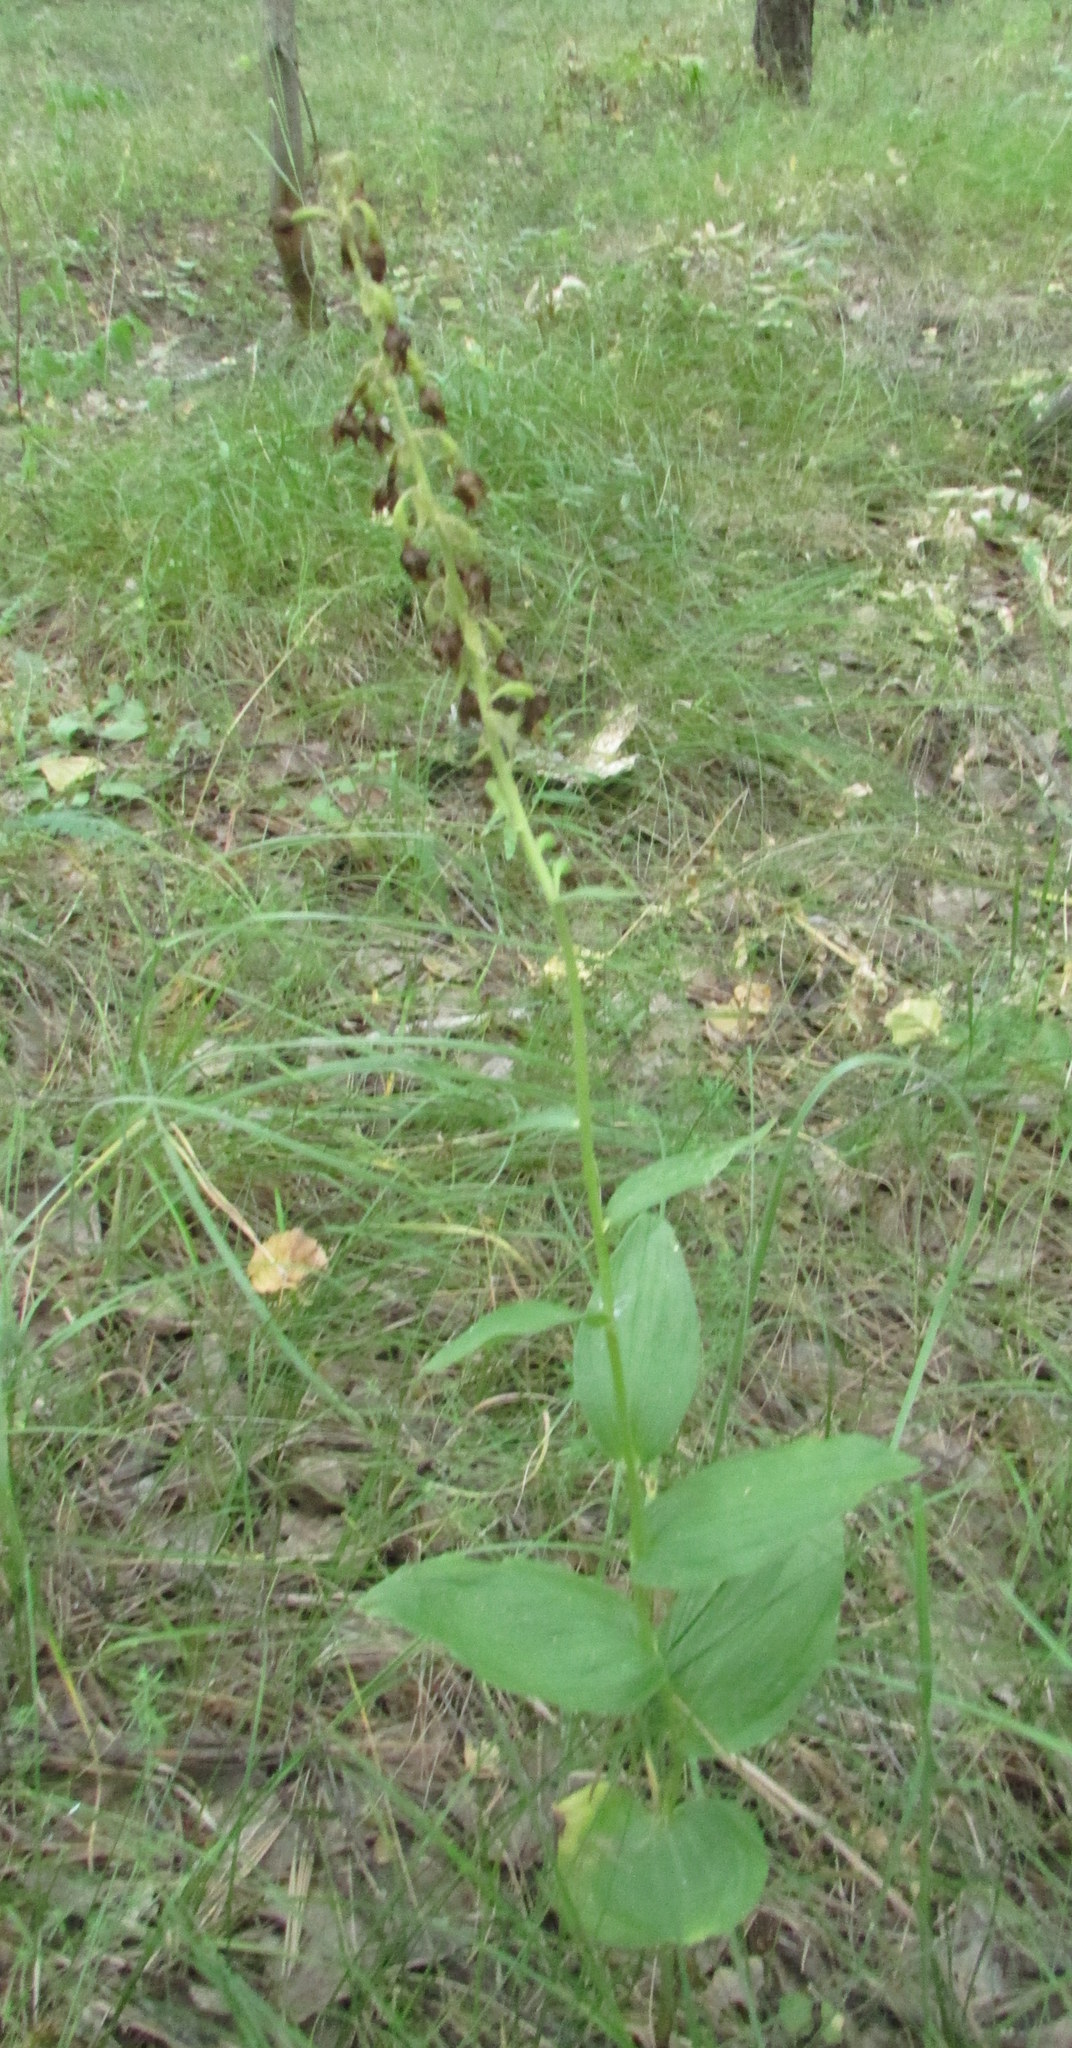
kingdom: Plantae
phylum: Tracheophyta
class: Liliopsida
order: Asparagales
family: Orchidaceae
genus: Epipactis
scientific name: Epipactis helleborine
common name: Broad-leaved helleborine
